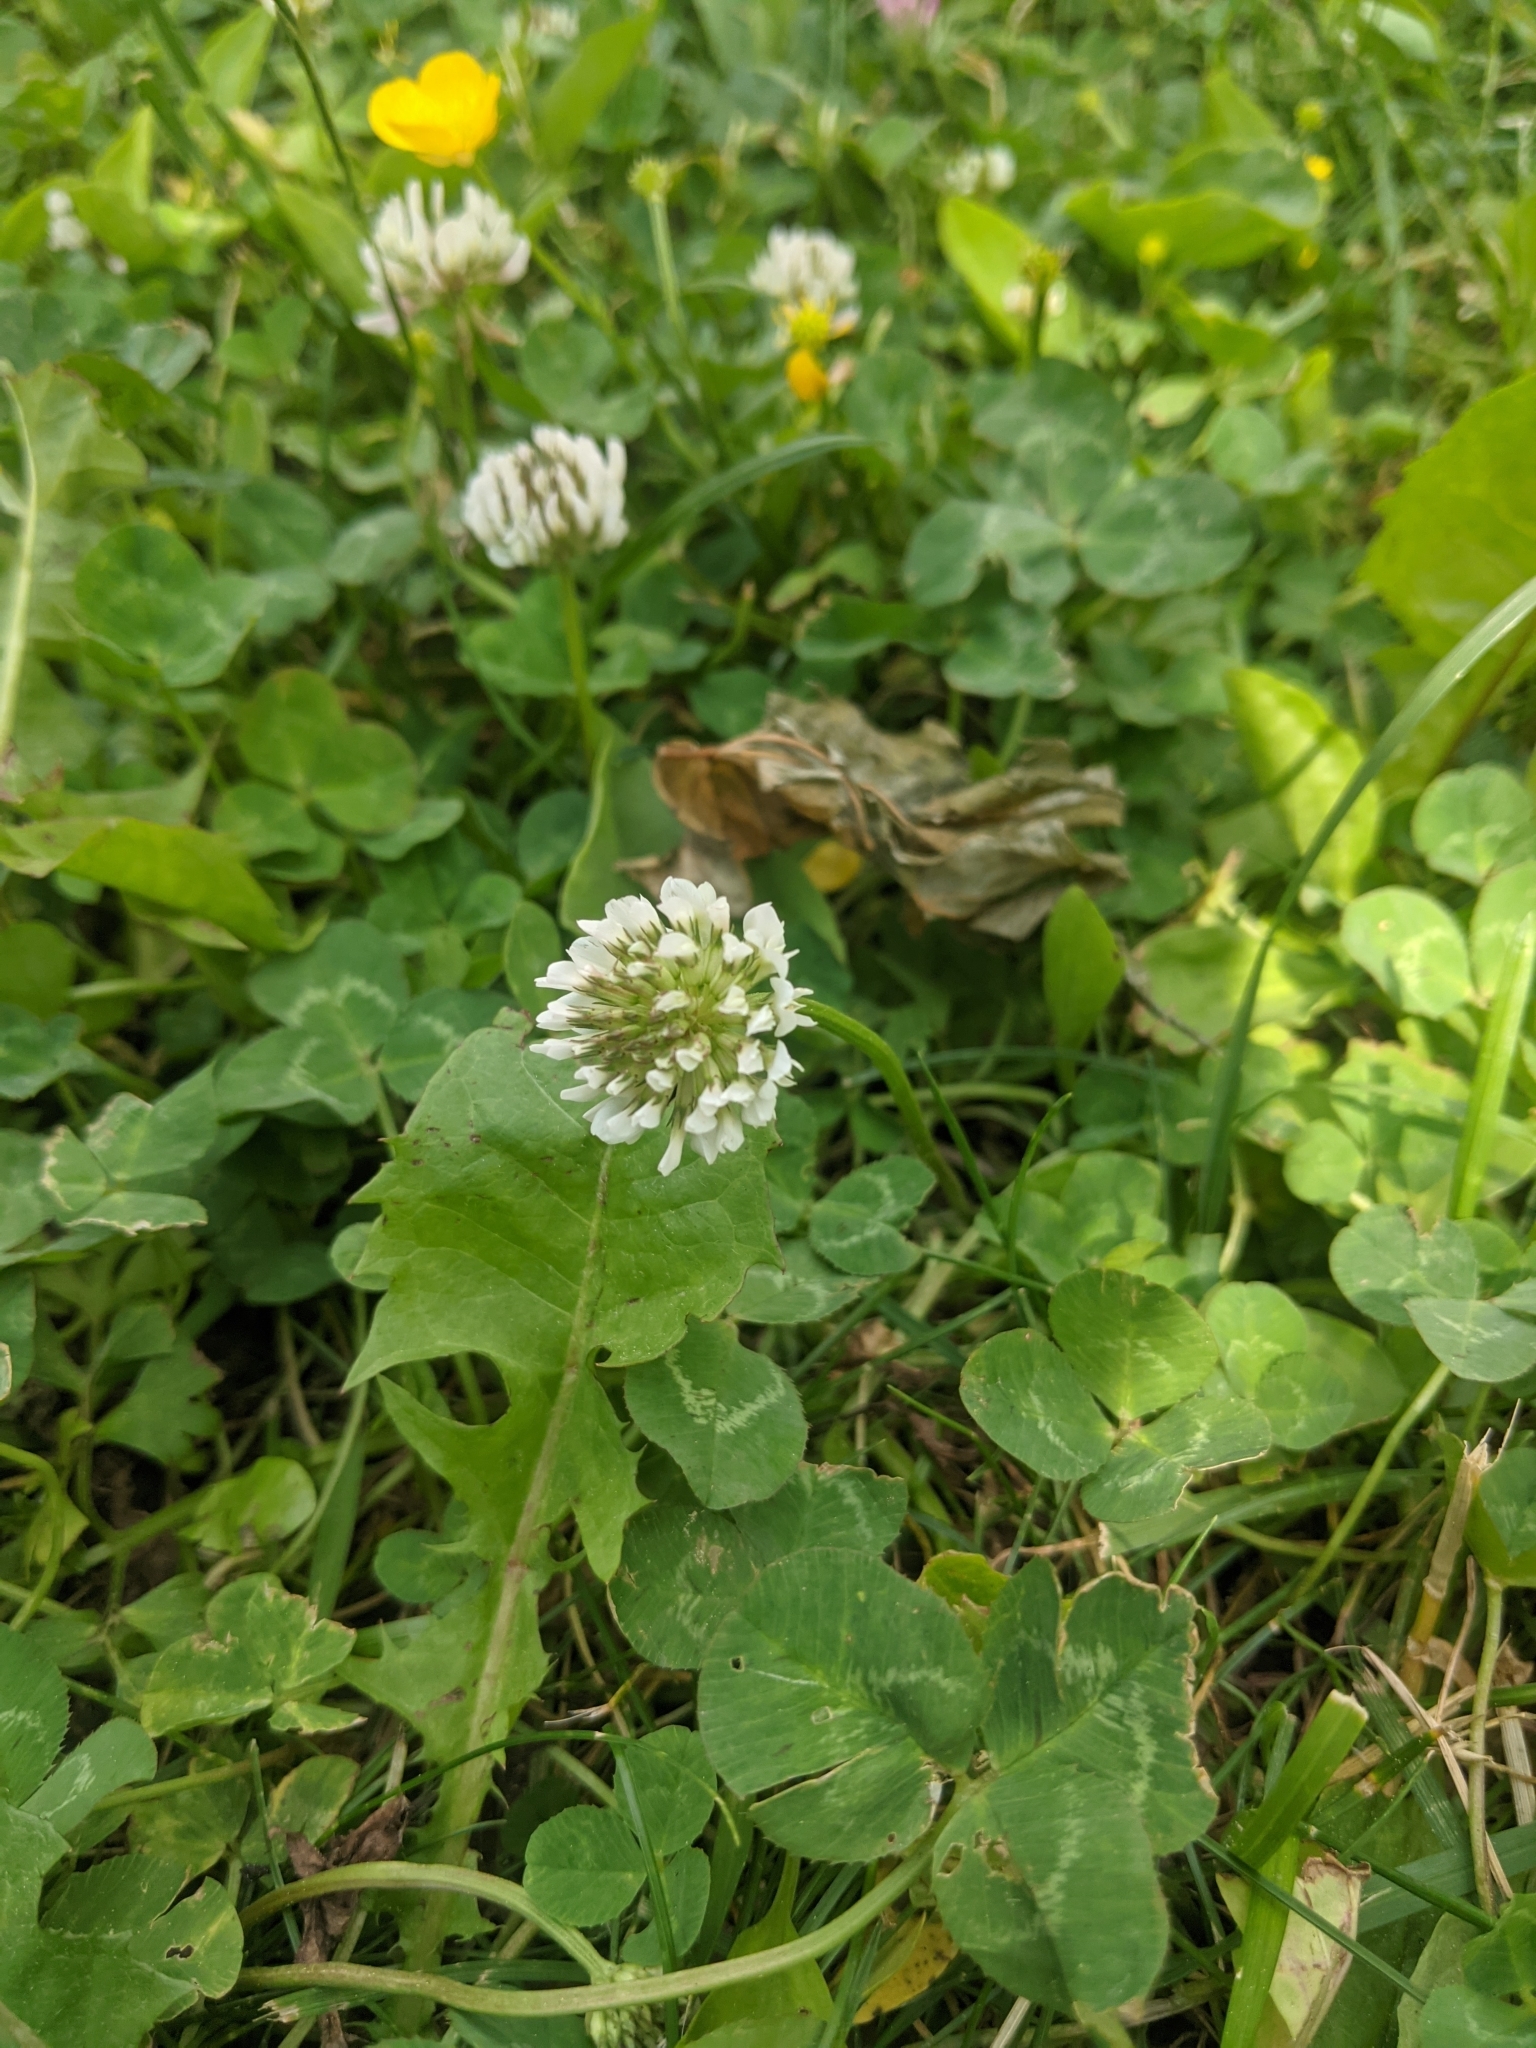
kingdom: Plantae
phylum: Tracheophyta
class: Magnoliopsida
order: Fabales
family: Fabaceae
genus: Trifolium
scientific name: Trifolium repens
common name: White clover
